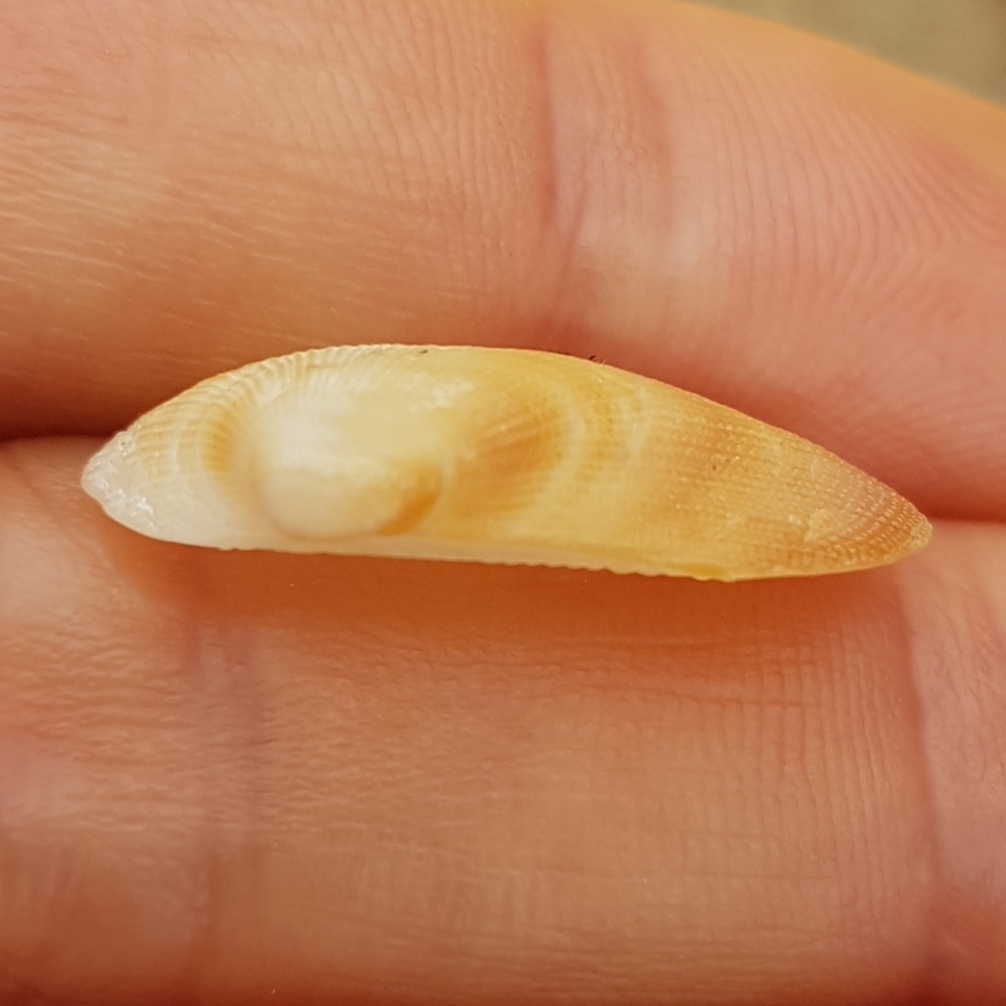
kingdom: Animalia
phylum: Mollusca
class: Bivalvia
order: Arcida
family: Arcidae
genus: Barbatia
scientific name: Barbatia barbata
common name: Bearded ark
